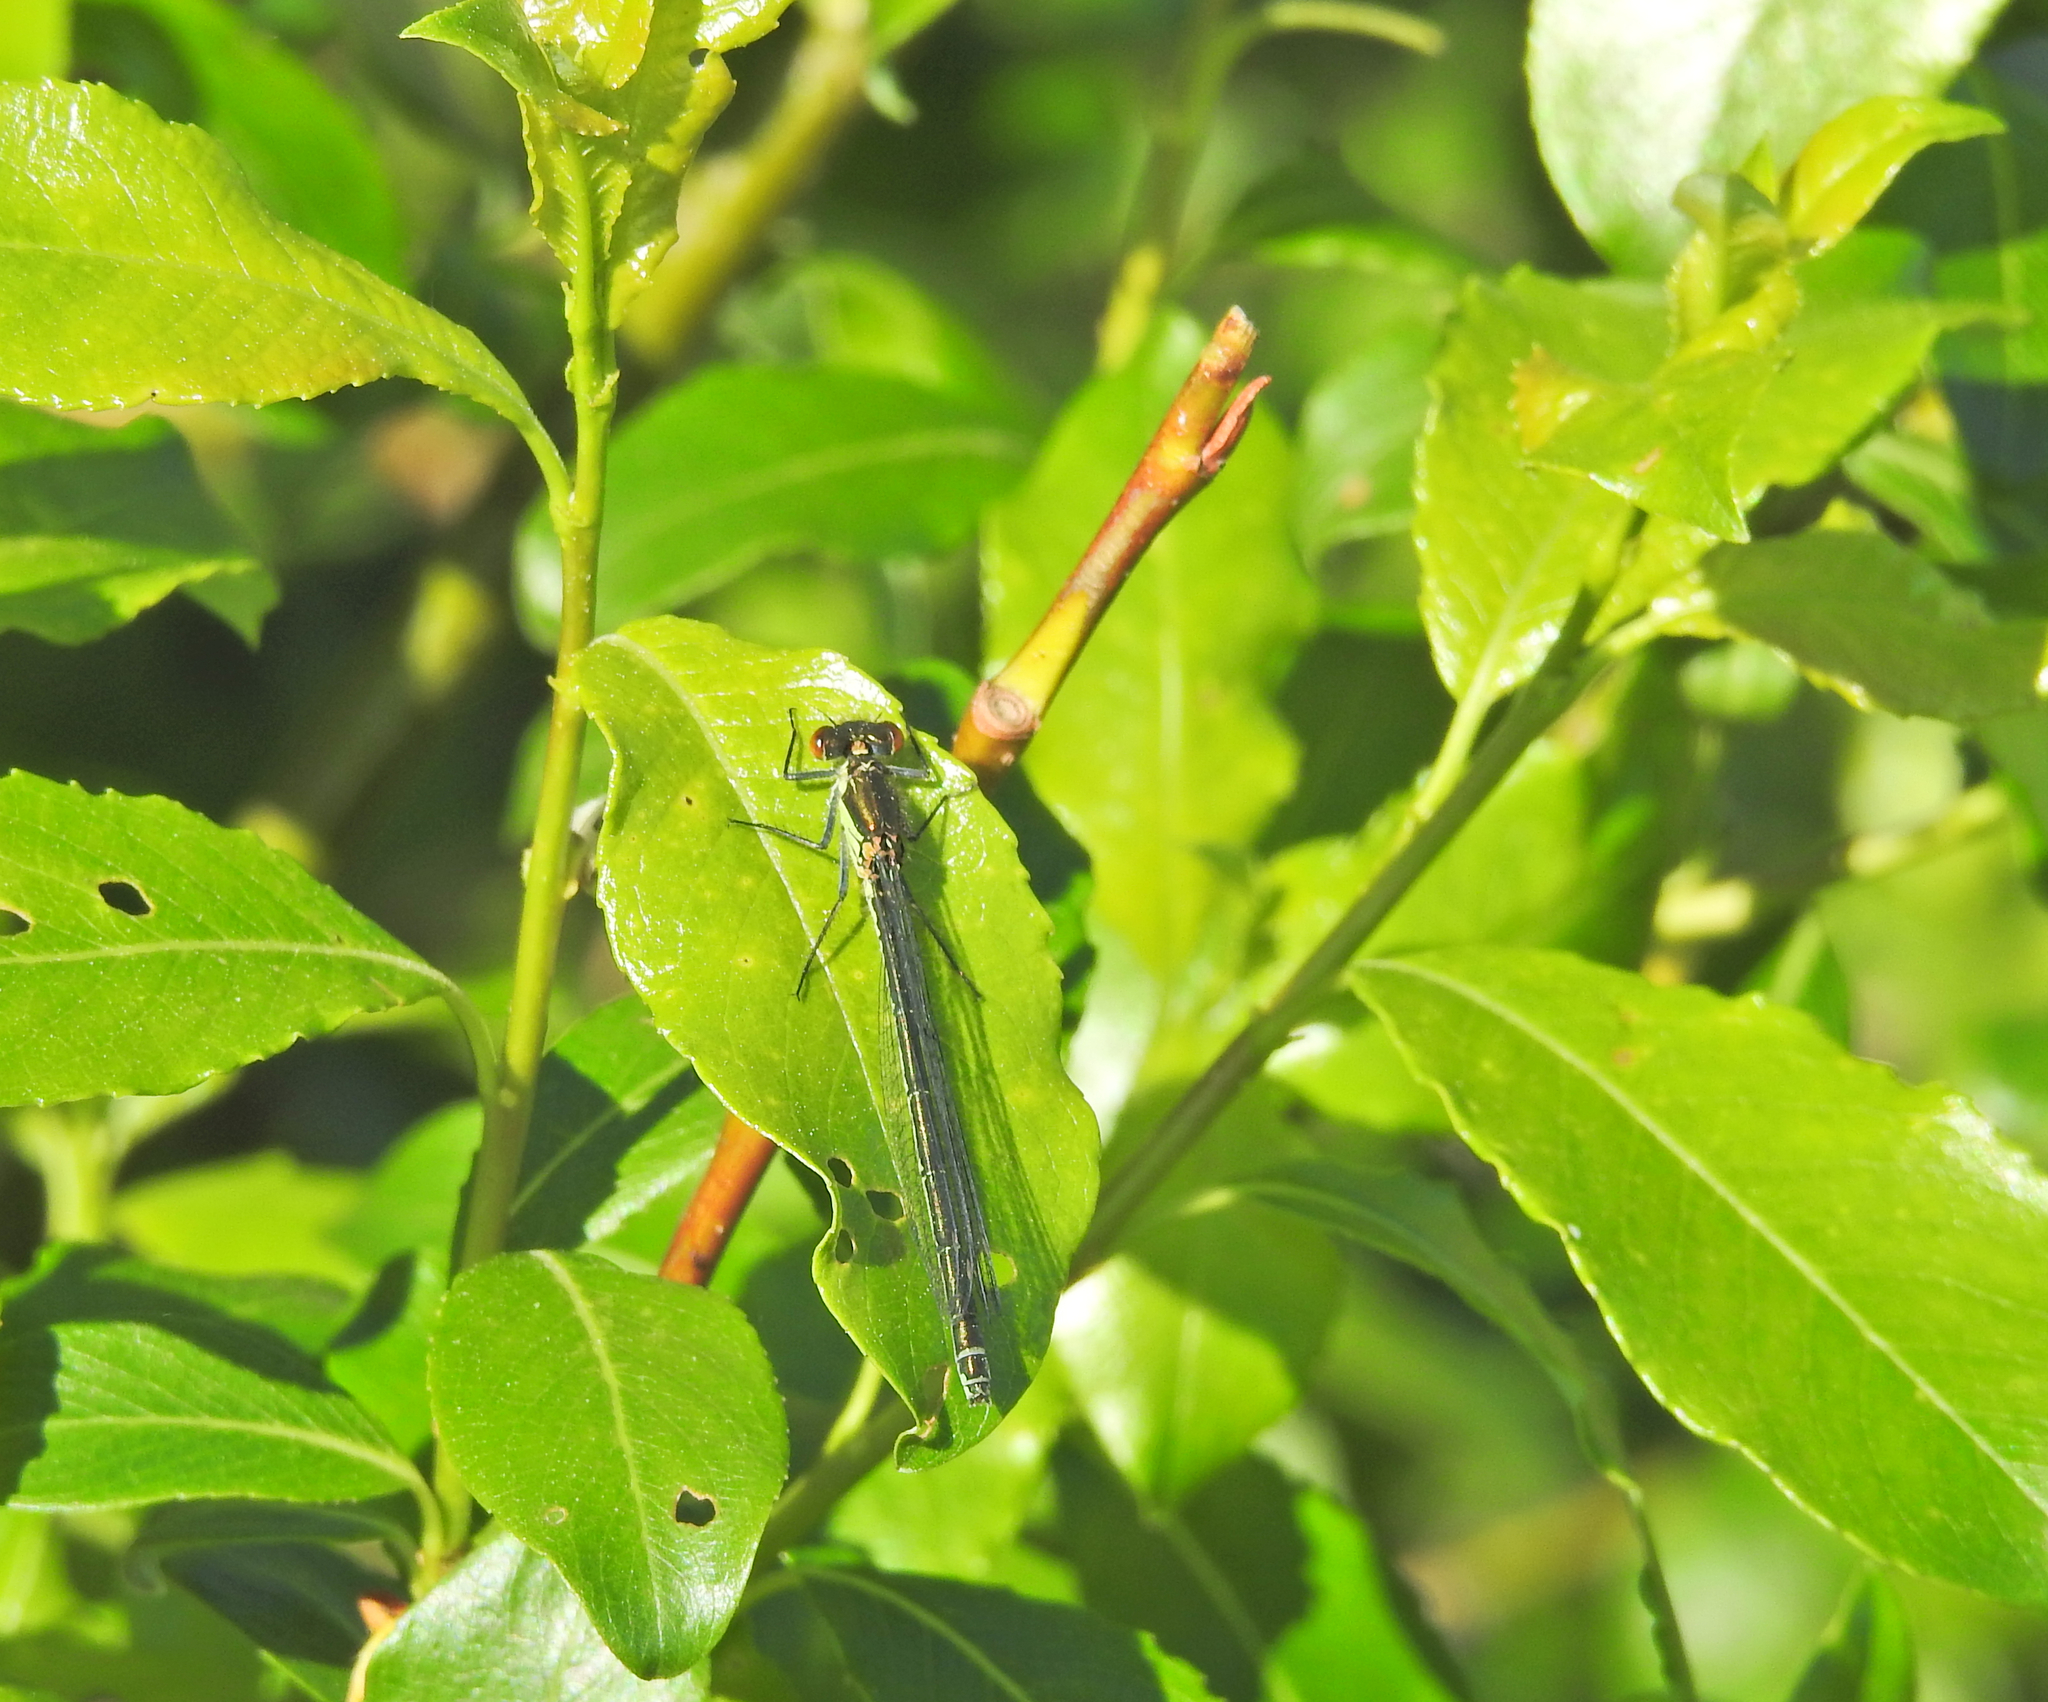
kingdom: Animalia
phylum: Arthropoda
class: Insecta
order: Odonata
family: Coenagrionidae
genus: Erythromma
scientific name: Erythromma najas
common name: Red-eyed damselfly
